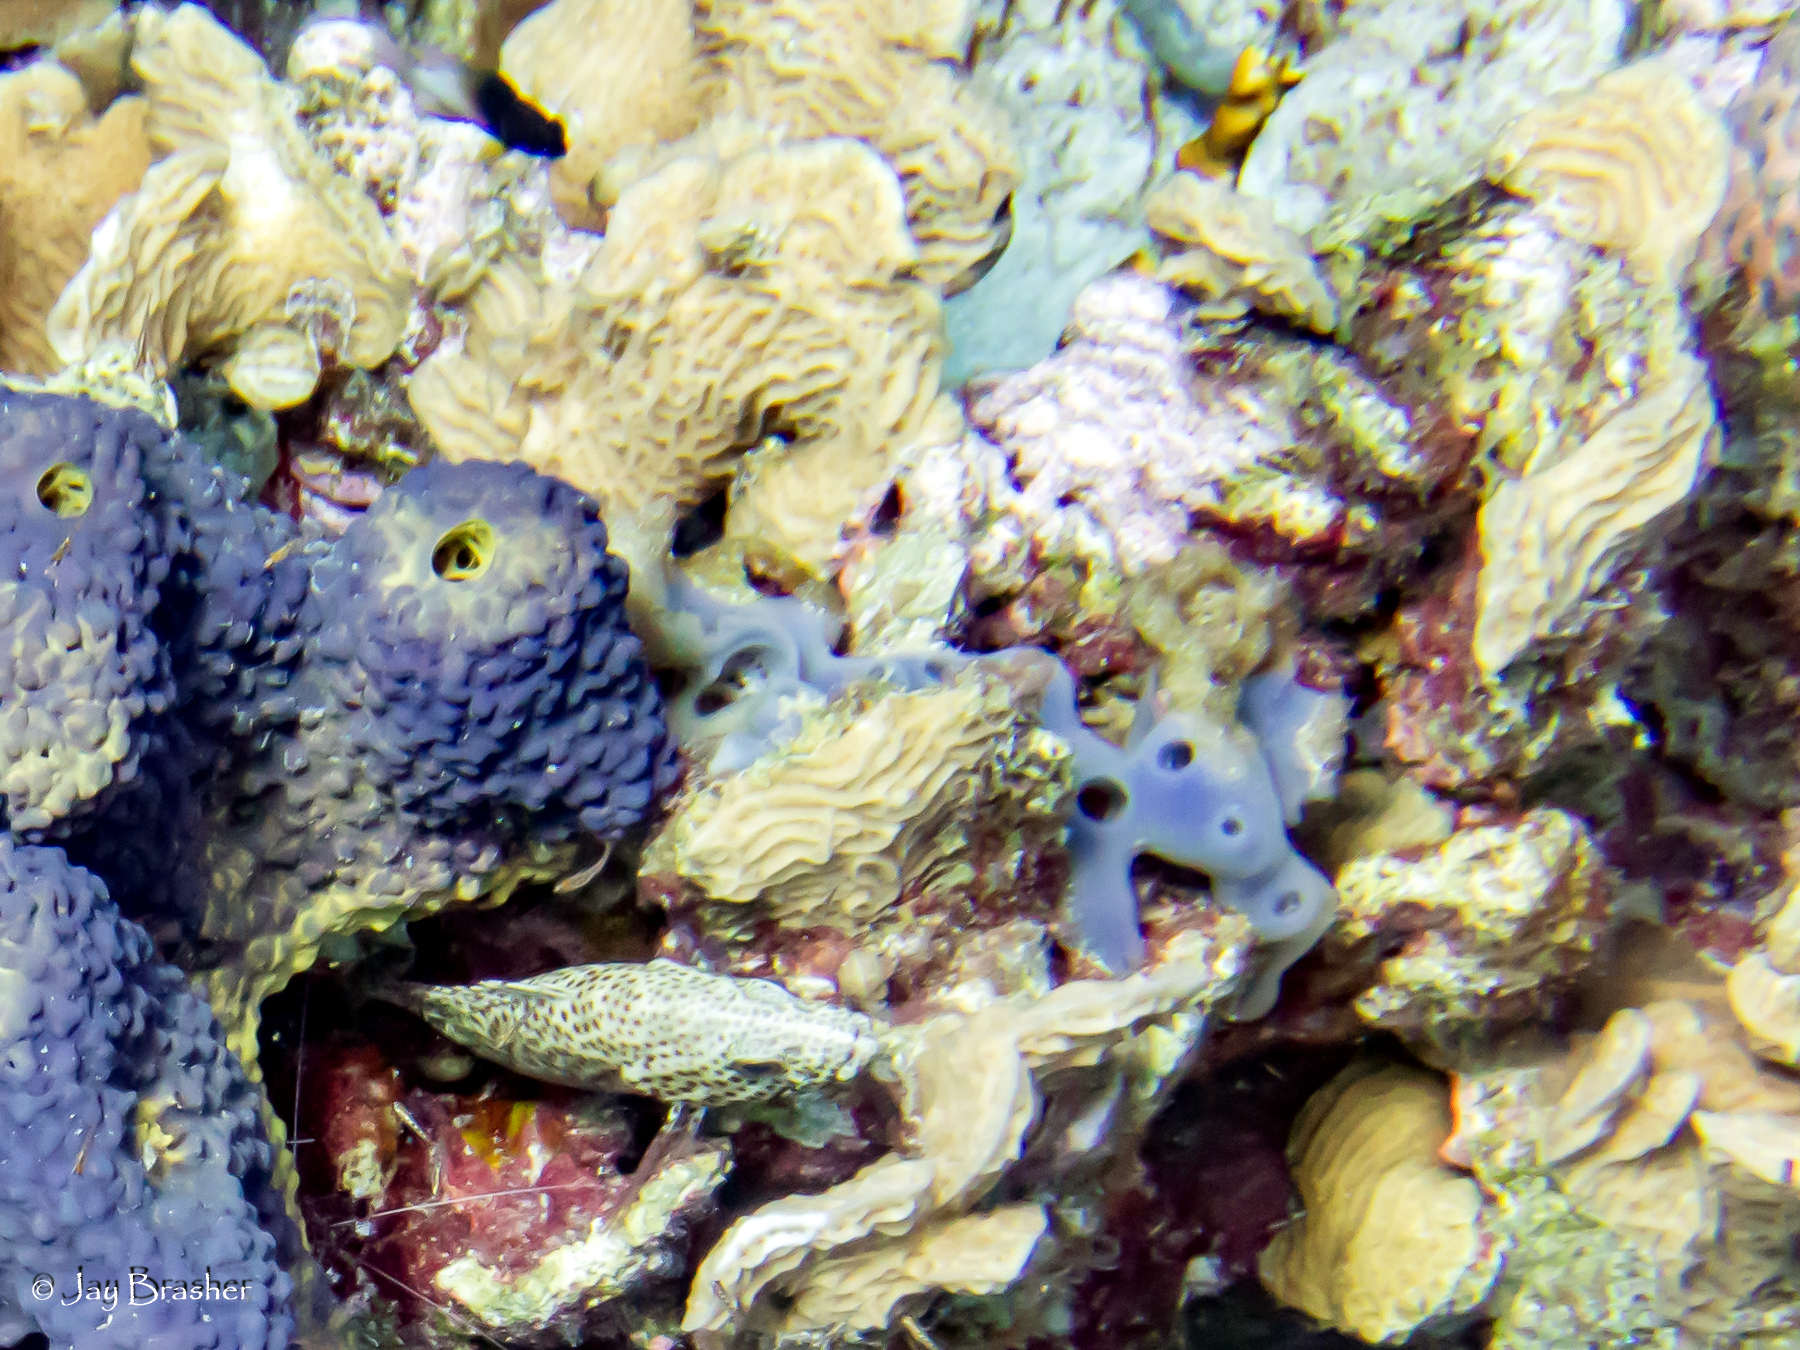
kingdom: Animalia
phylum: Porifera
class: Demospongiae
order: Haplosclerida
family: Callyspongiidae
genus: Callyspongia
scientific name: Callyspongia fallax
